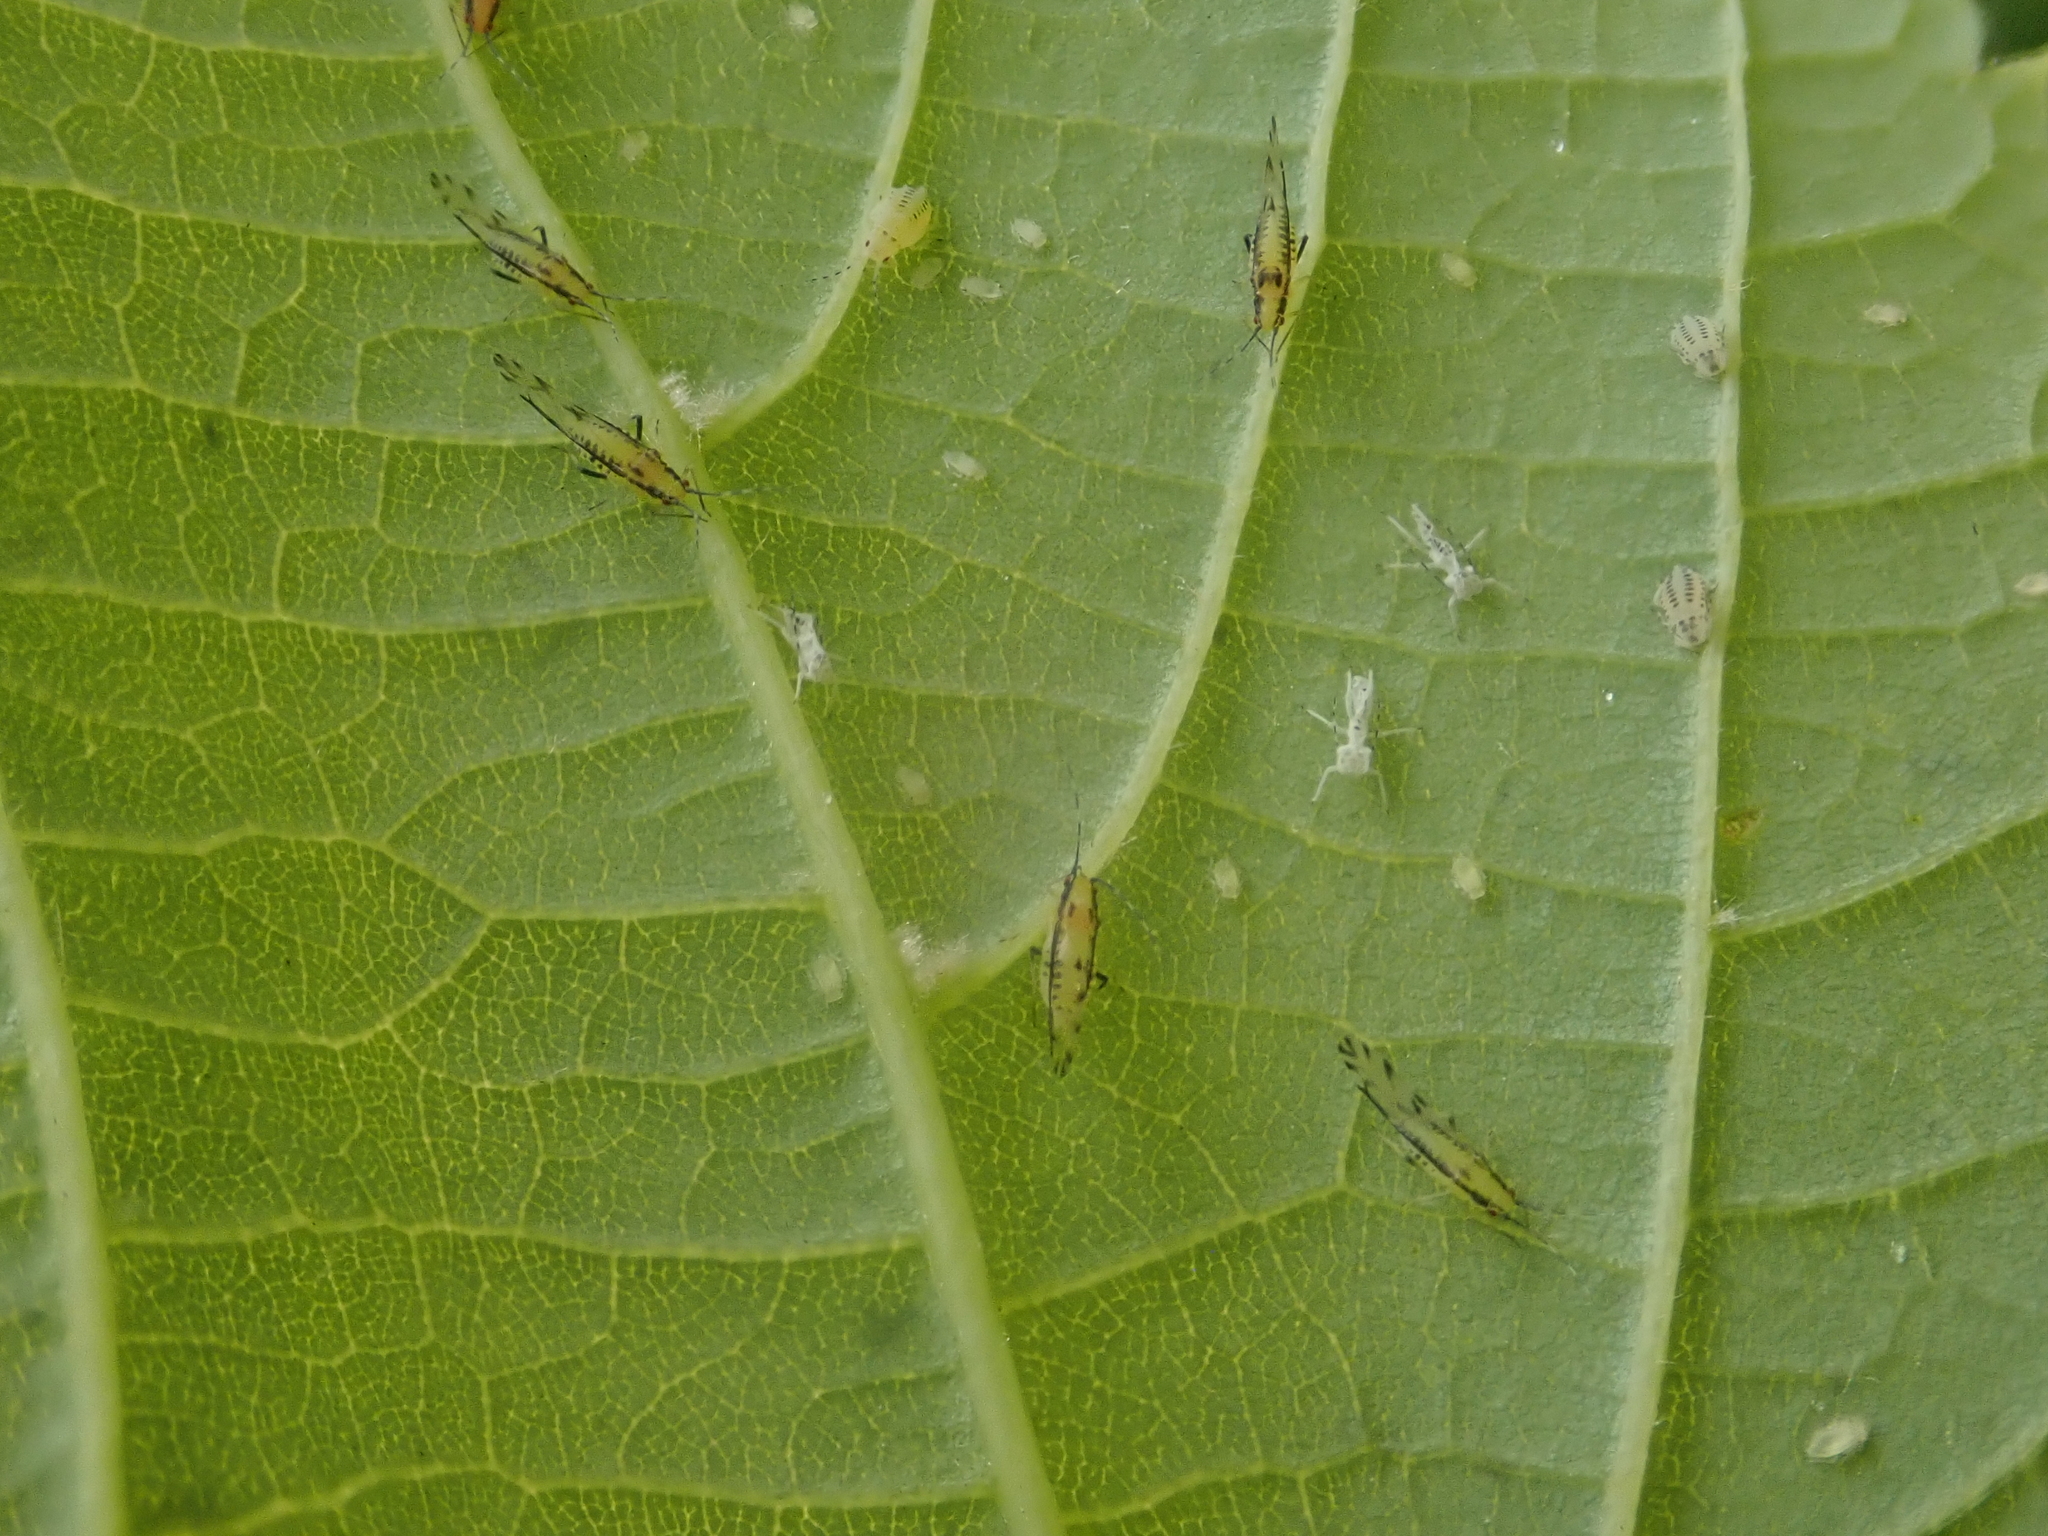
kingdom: Animalia
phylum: Arthropoda
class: Insecta
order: Hemiptera
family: Aphididae
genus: Eucallipterus
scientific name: Eucallipterus tiliae
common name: Aphid
